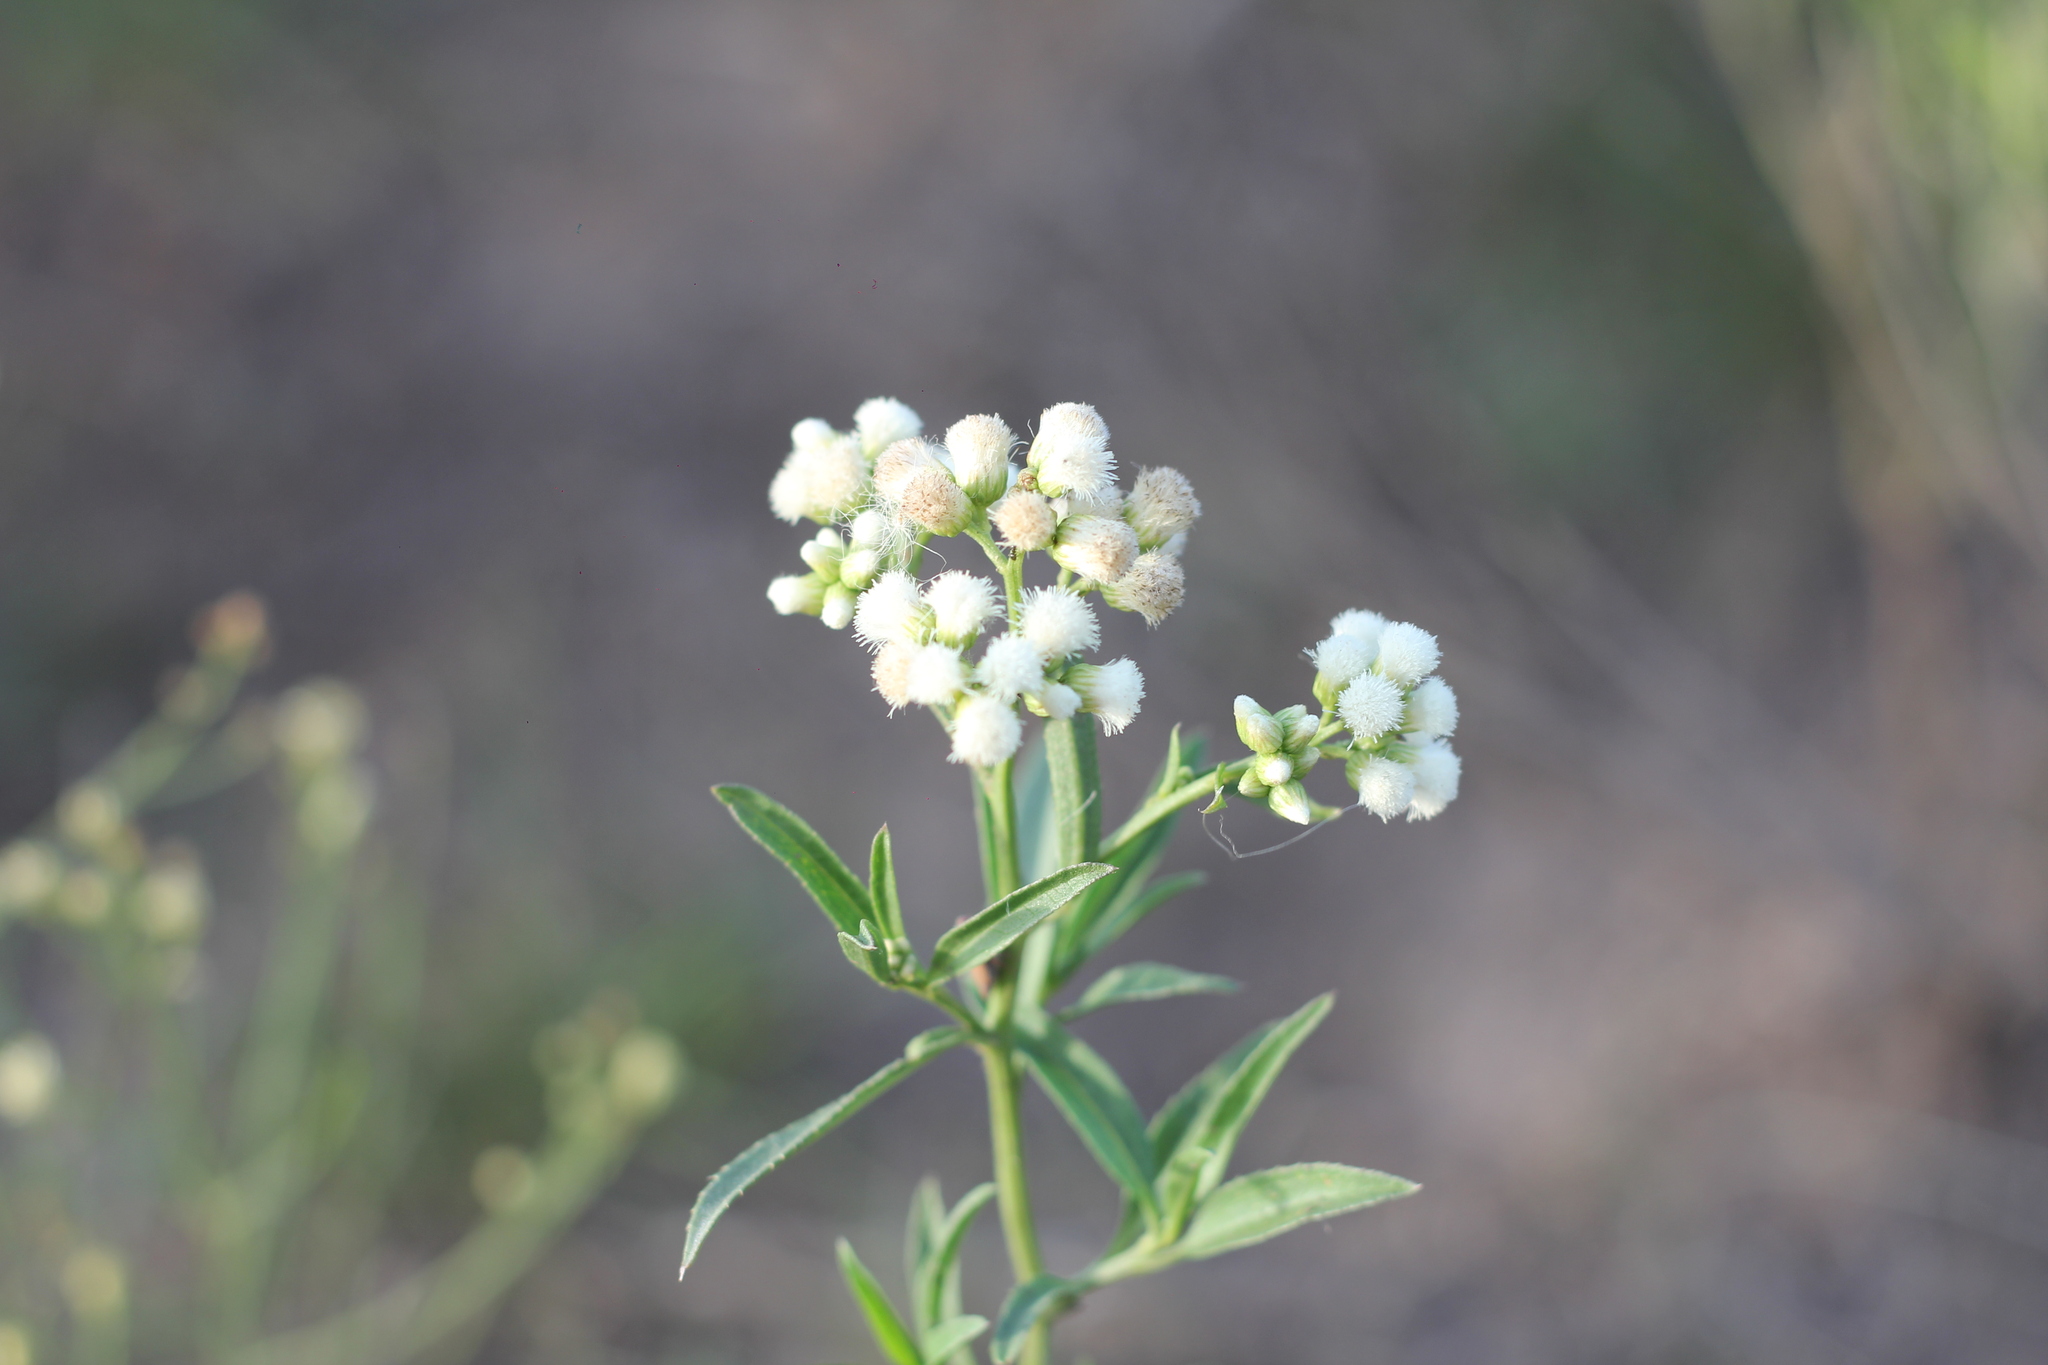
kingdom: Plantae
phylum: Tracheophyta
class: Magnoliopsida
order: Asterales
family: Asteraceae
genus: Baccharis
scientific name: Baccharis glutinosa
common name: Saltmarsh baccharis
